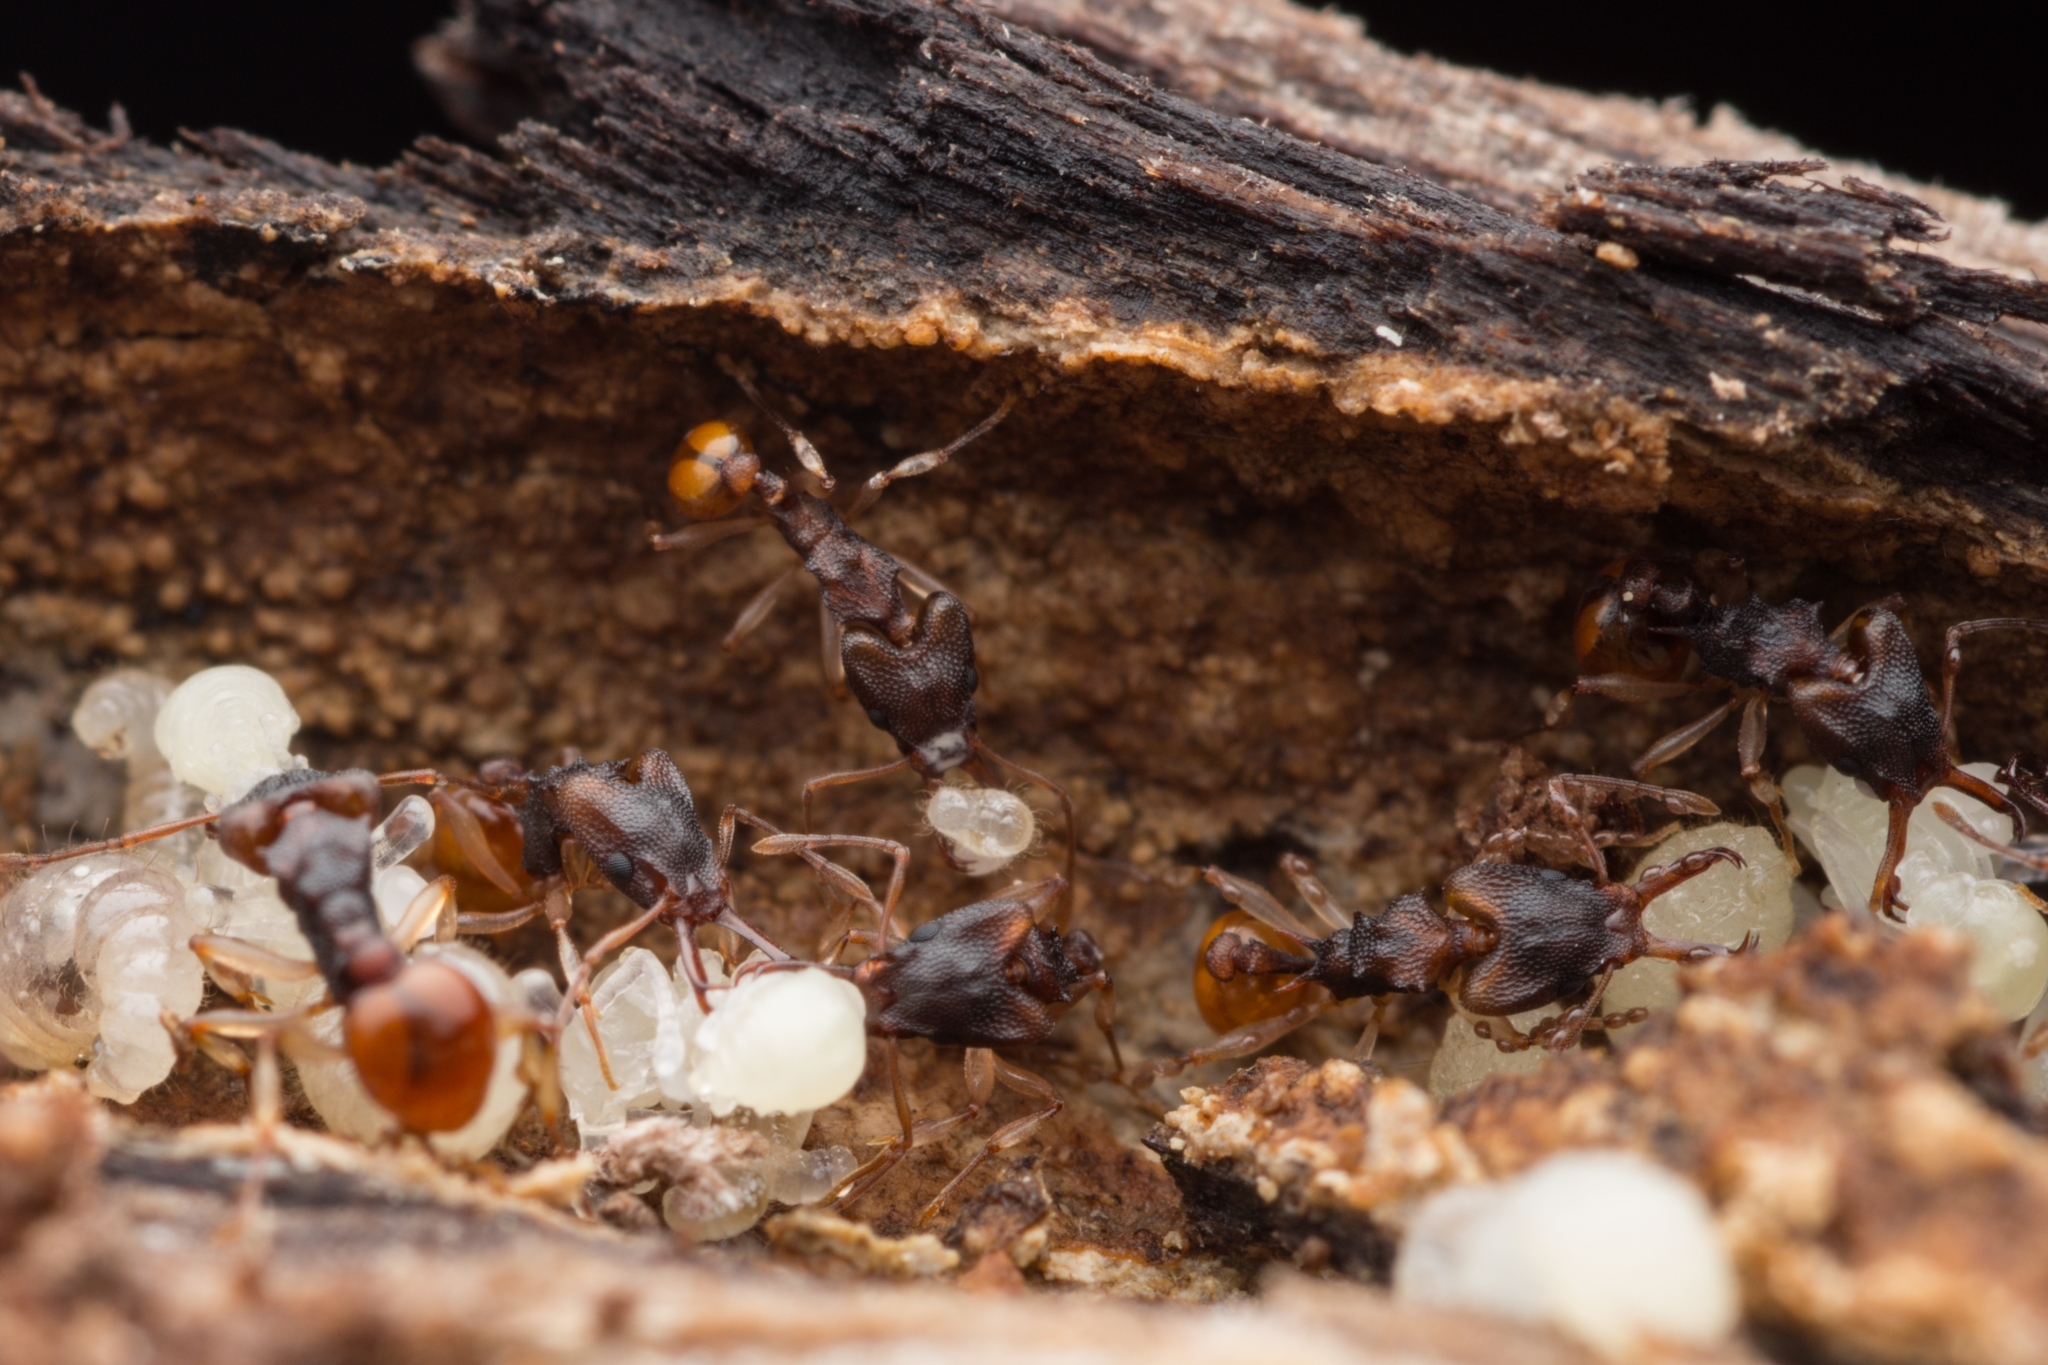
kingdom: Animalia
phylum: Arthropoda
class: Insecta
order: Hymenoptera
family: Formicidae
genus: Orectognathus
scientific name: Orectognathus mjobergi
